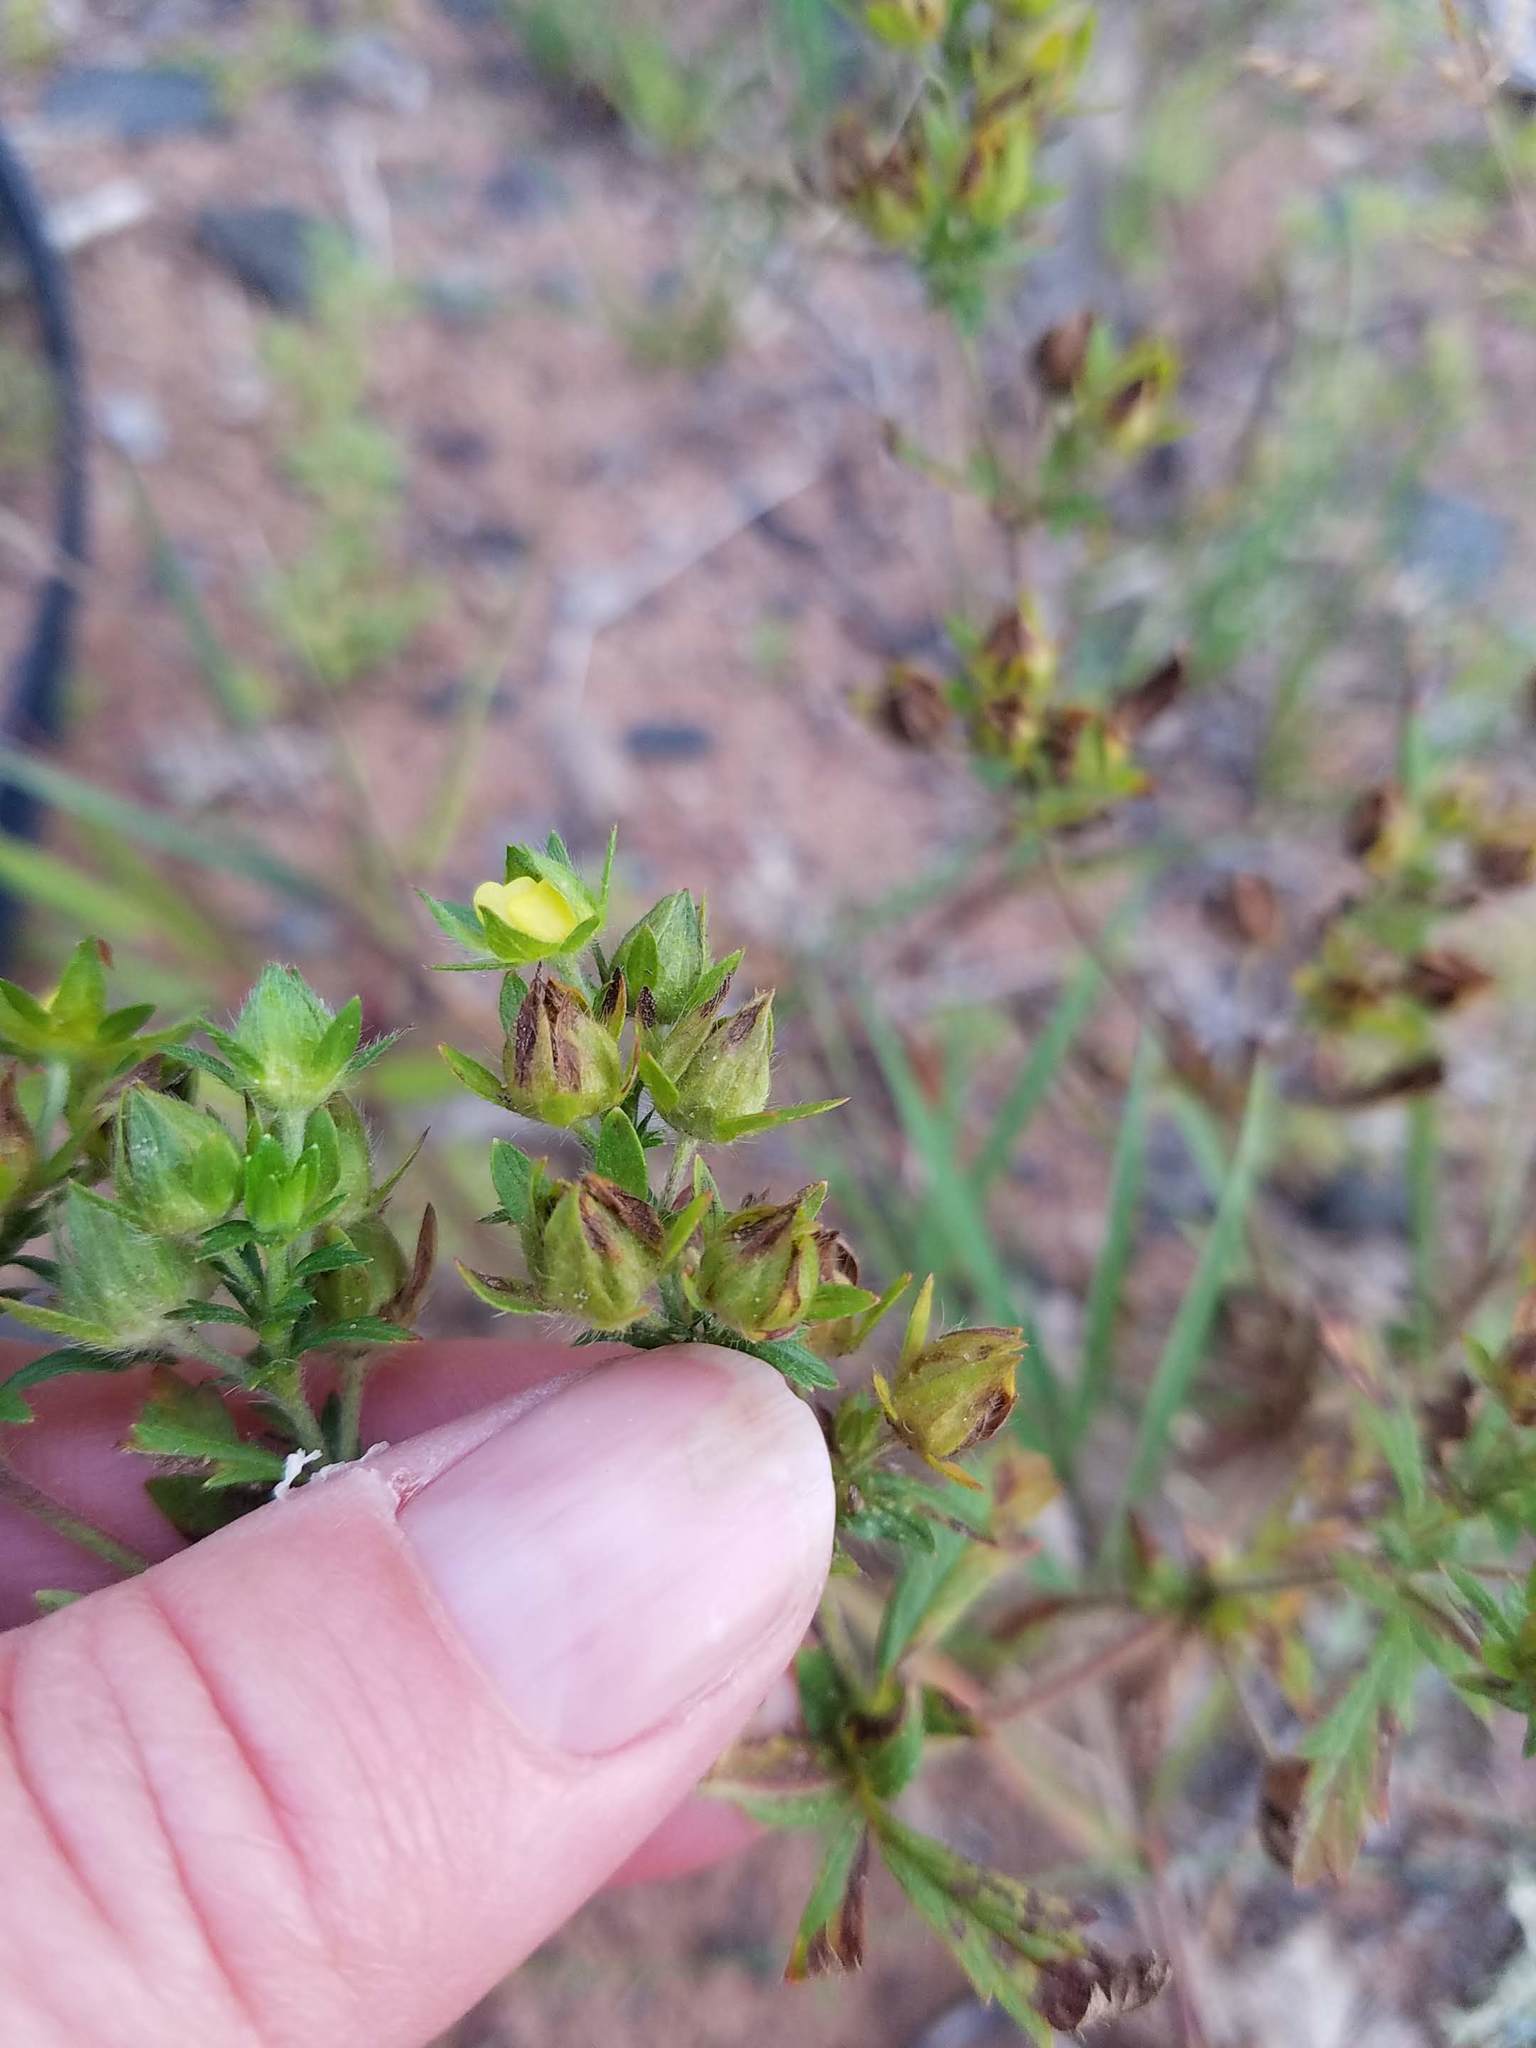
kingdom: Plantae
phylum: Tracheophyta
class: Magnoliopsida
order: Rosales
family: Rosaceae
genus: Potentilla
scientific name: Potentilla norvegica
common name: Ternate-leaved cinquefoil
